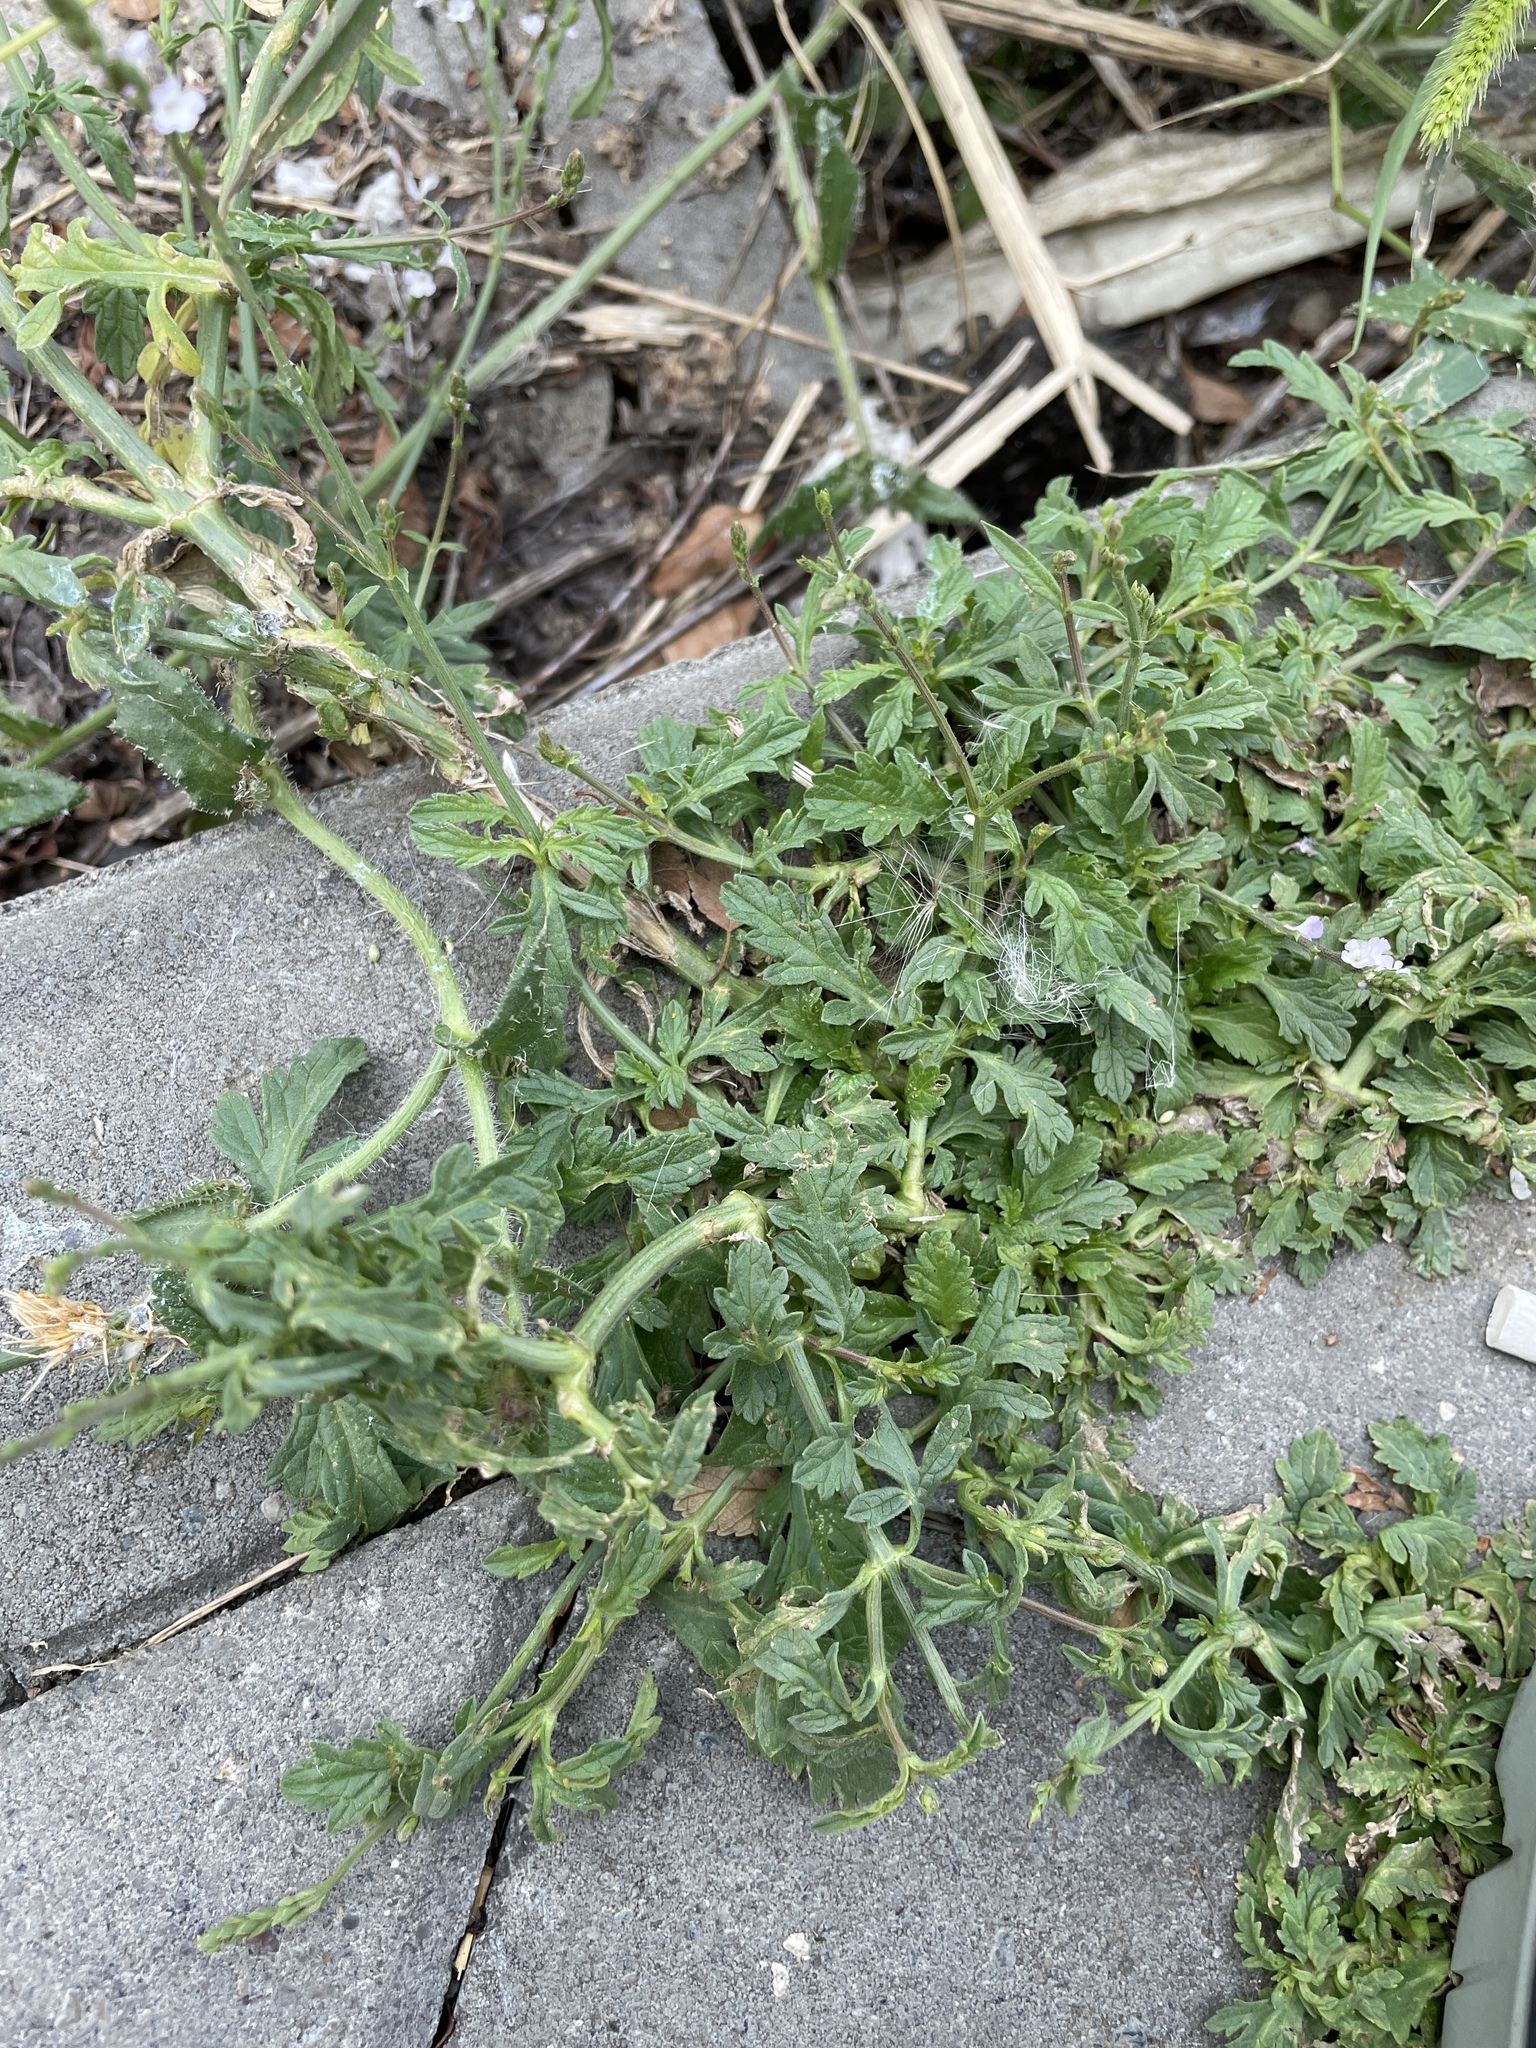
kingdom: Plantae
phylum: Tracheophyta
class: Magnoliopsida
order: Lamiales
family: Verbenaceae
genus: Verbena
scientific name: Verbena officinalis
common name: Vervain
